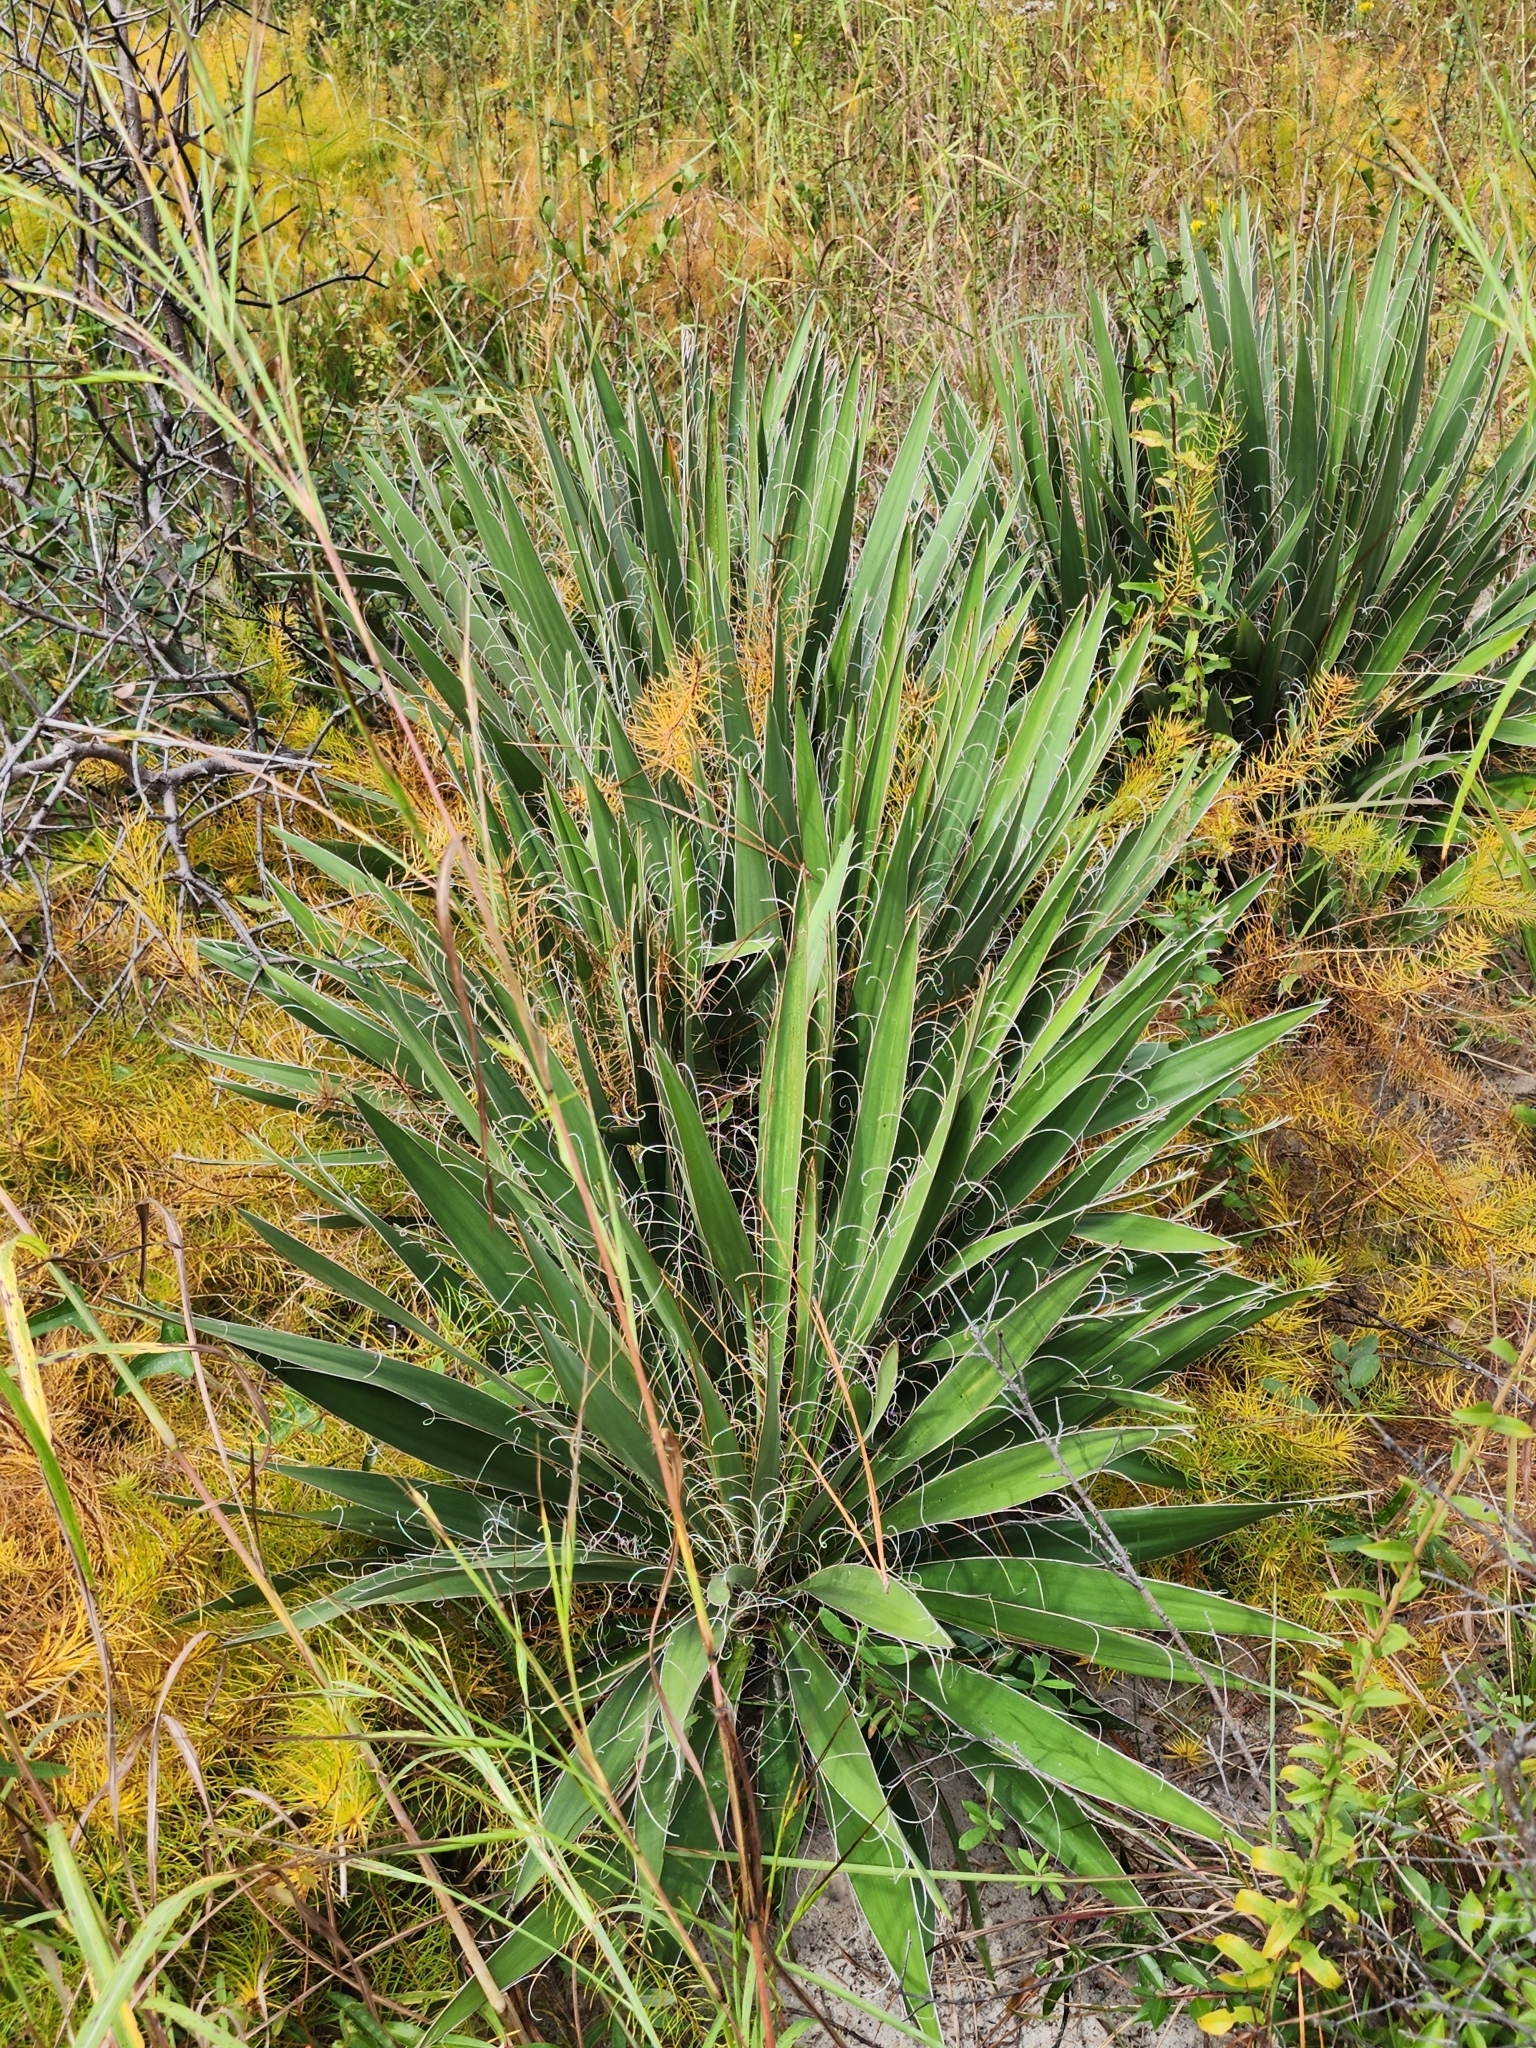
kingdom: Plantae
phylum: Tracheophyta
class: Liliopsida
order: Asparagales
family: Asparagaceae
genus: Yucca
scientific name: Yucca filamentosa
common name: Adam's-needle
